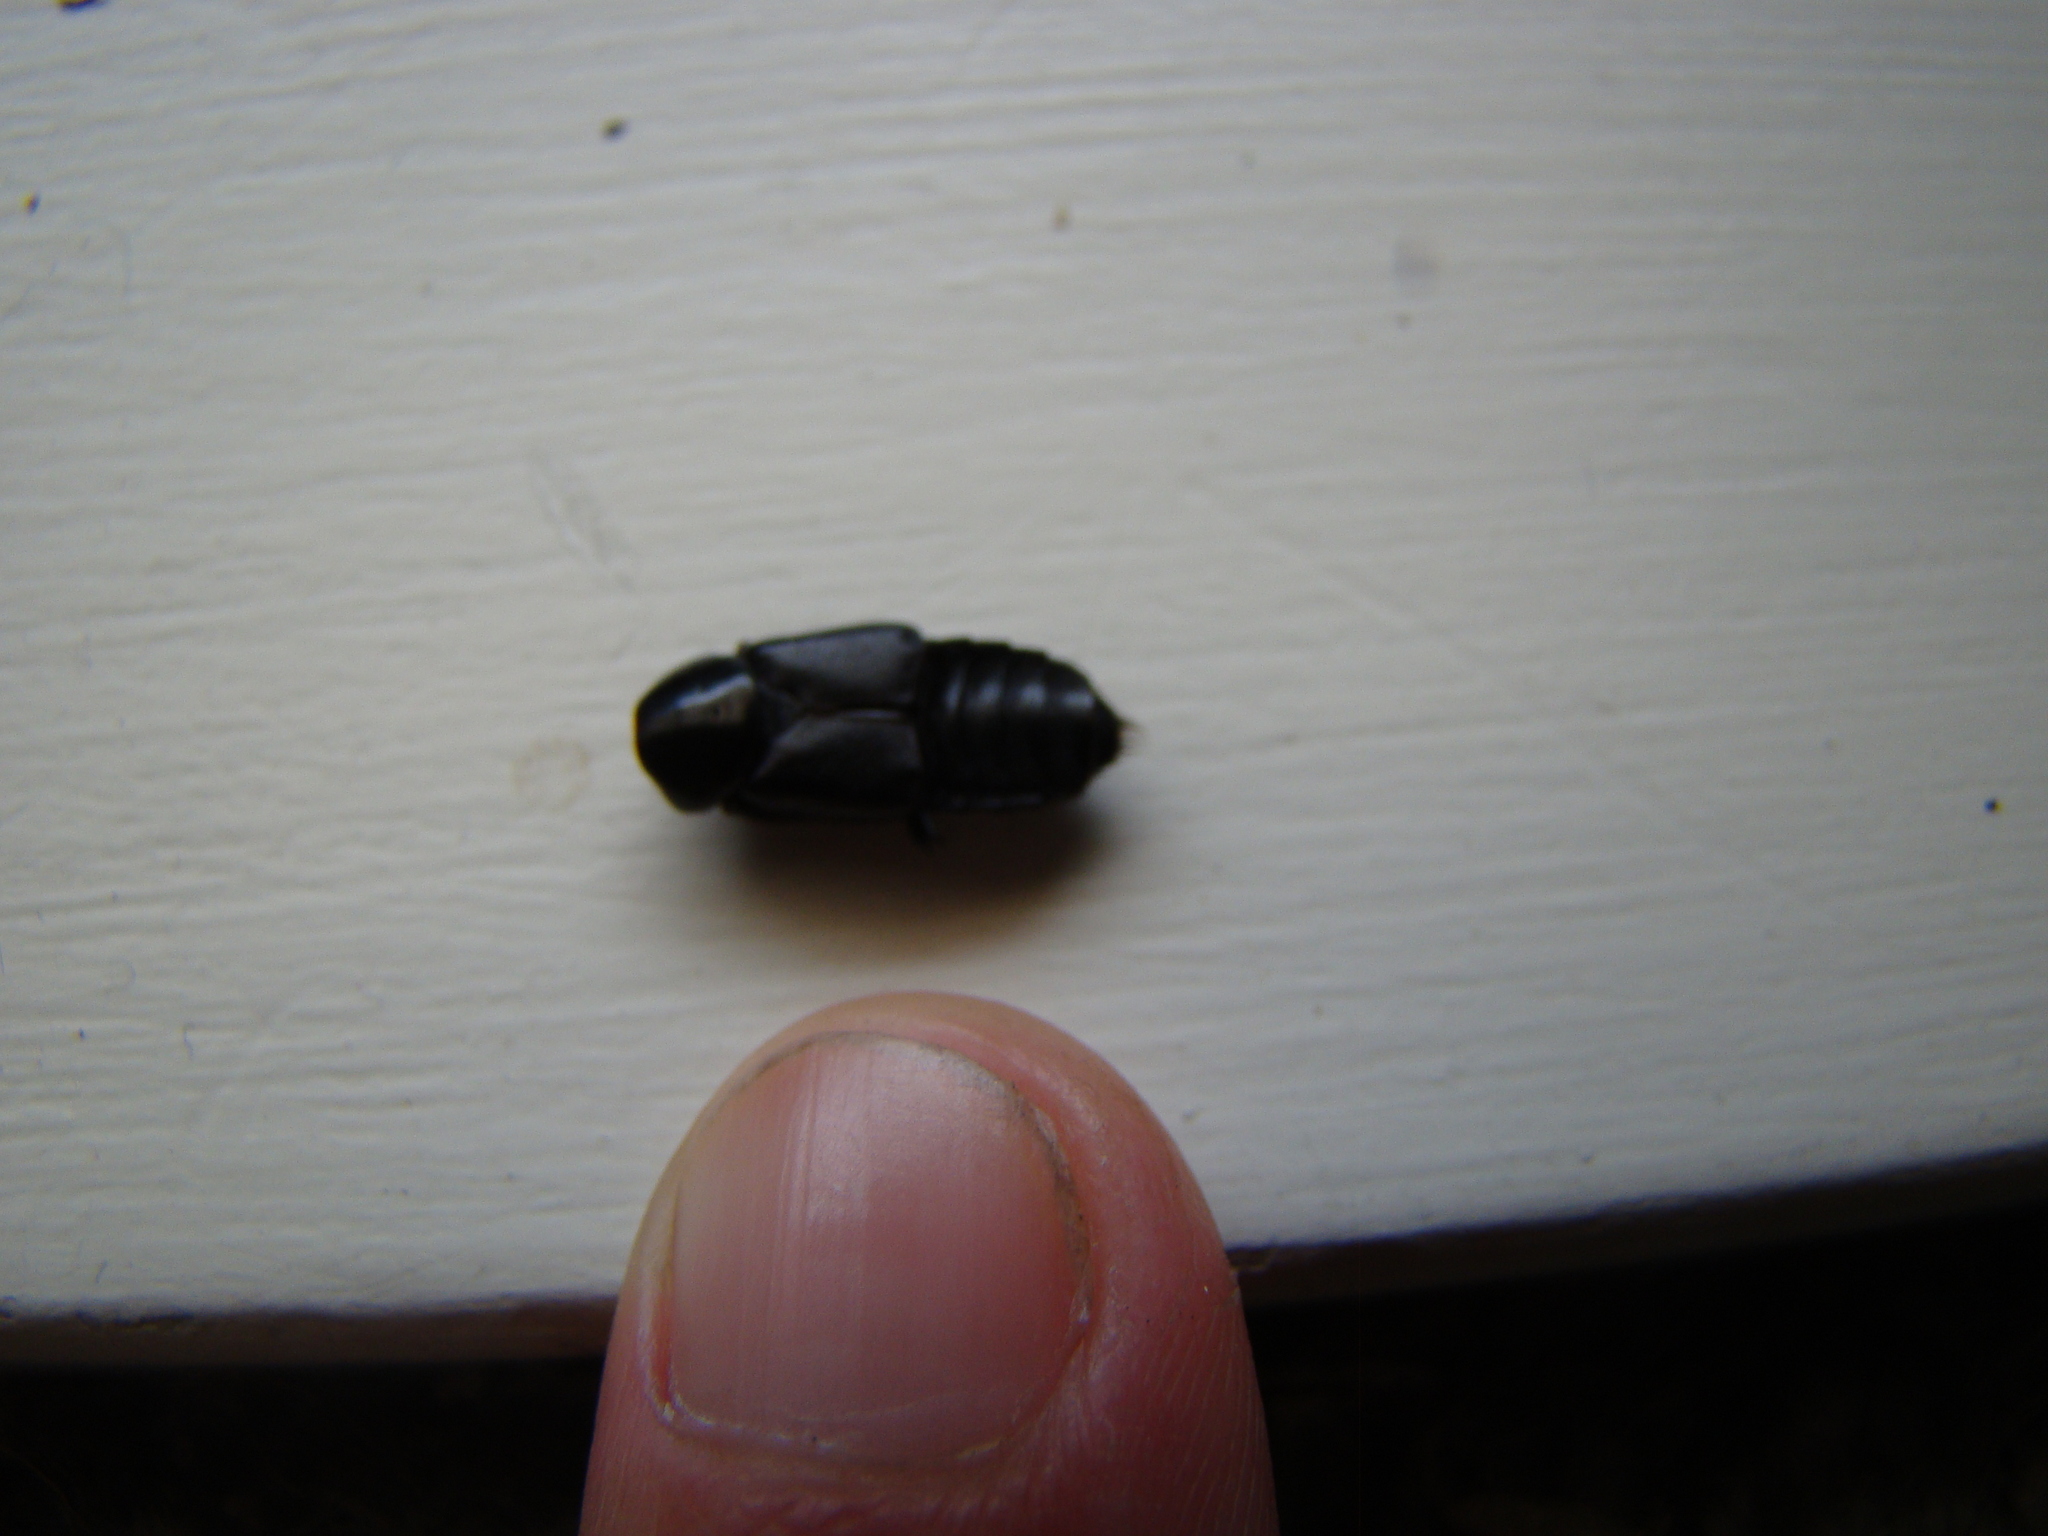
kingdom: Animalia
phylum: Arthropoda
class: Insecta
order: Coleoptera
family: Staphylinidae
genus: Creophilus
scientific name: Creophilus oculatus
